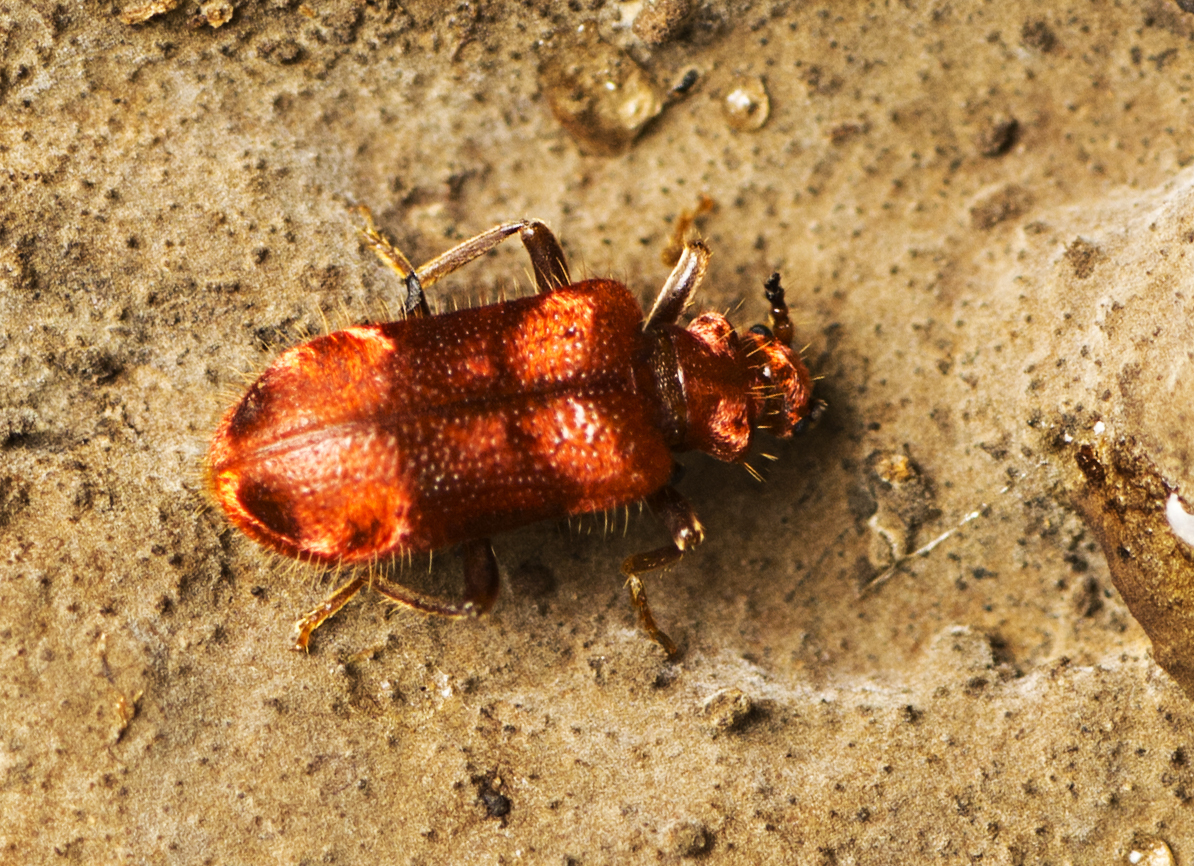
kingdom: Animalia
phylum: Arthropoda
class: Insecta
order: Coleoptera
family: Anthicidae
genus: Lemodes
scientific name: Lemodes
